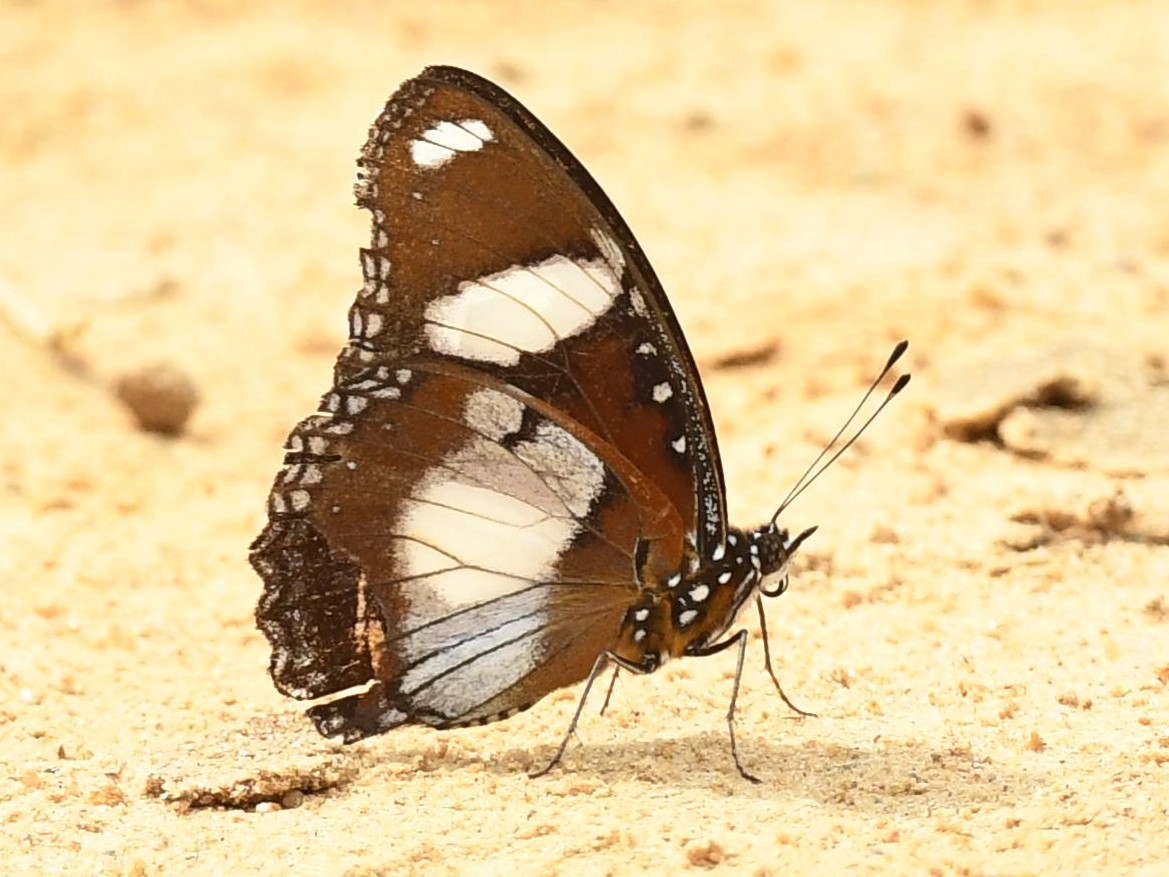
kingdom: Animalia
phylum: Arthropoda
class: Insecta
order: Lepidoptera
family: Nymphalidae
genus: Hypolimnas
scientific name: Hypolimnas misippus
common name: False plain tiger
